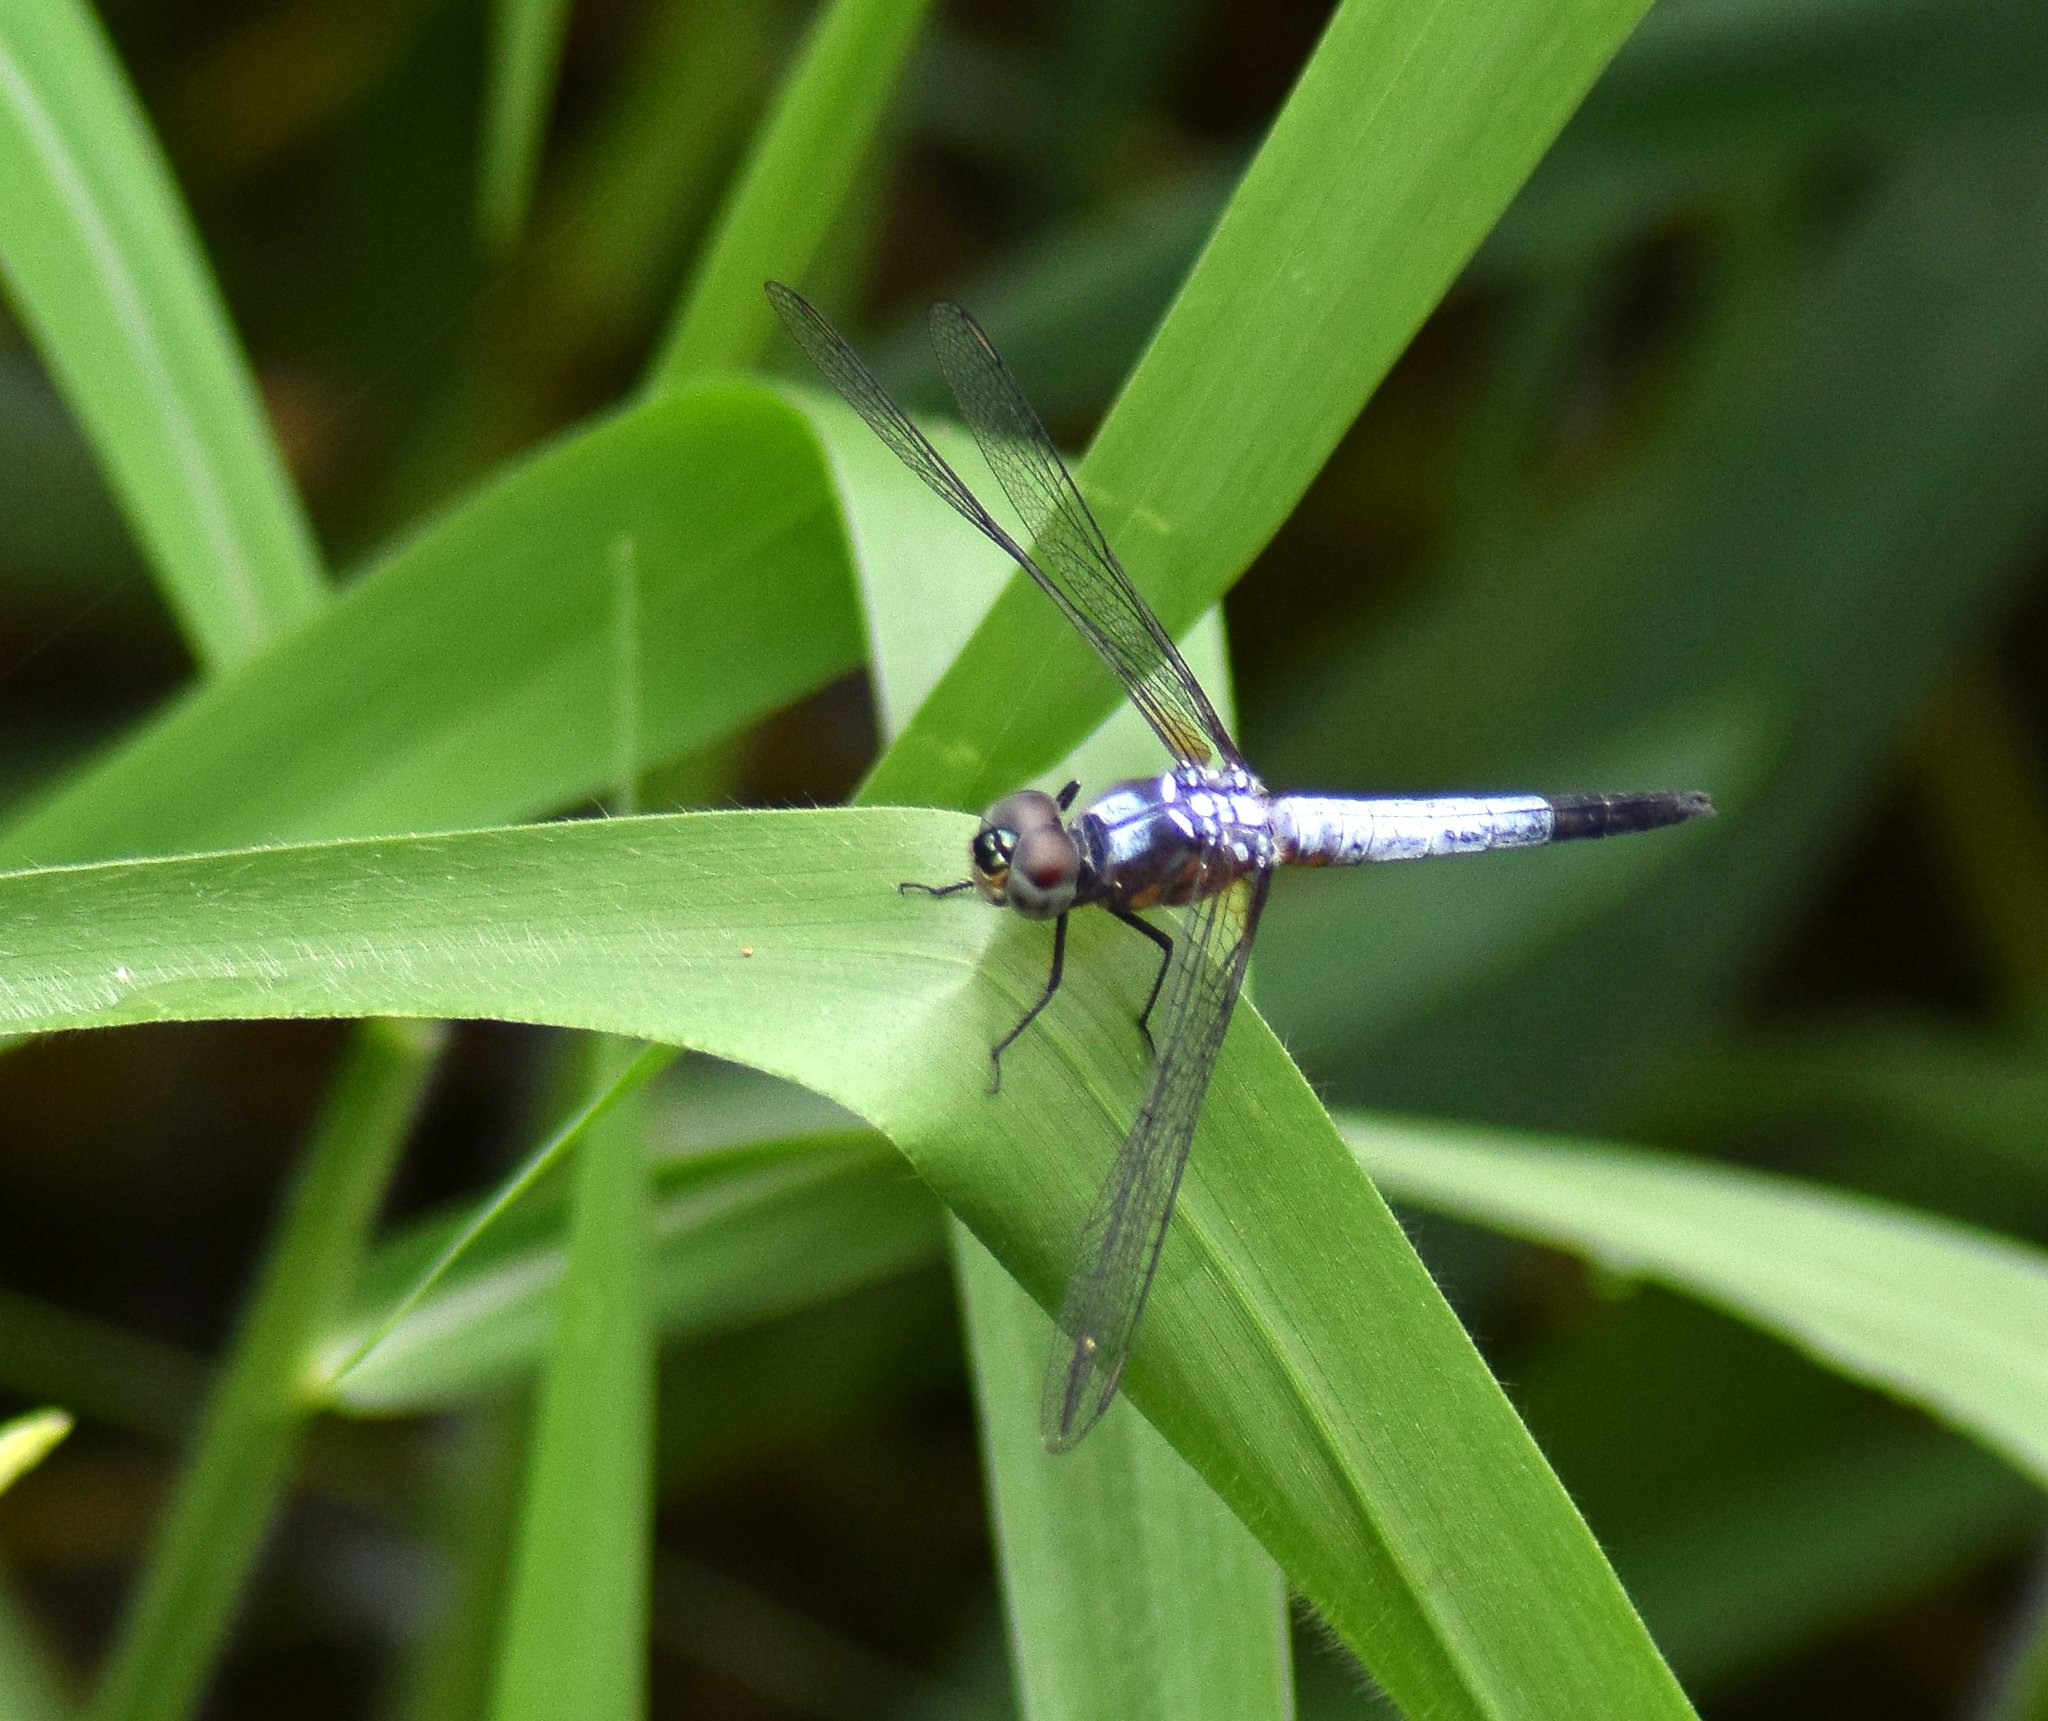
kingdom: Animalia
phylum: Arthropoda
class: Insecta
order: Odonata
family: Libellulidae
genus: Brachydiplax
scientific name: Brachydiplax chalybea
